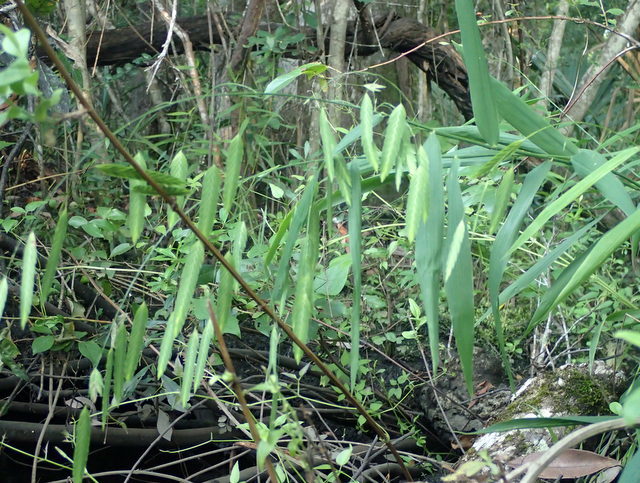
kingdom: Plantae
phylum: Tracheophyta
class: Liliopsida
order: Poales
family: Poaceae
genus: Chasmanthium
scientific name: Chasmanthium latifolium
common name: Broad-leaved chasmanthium
